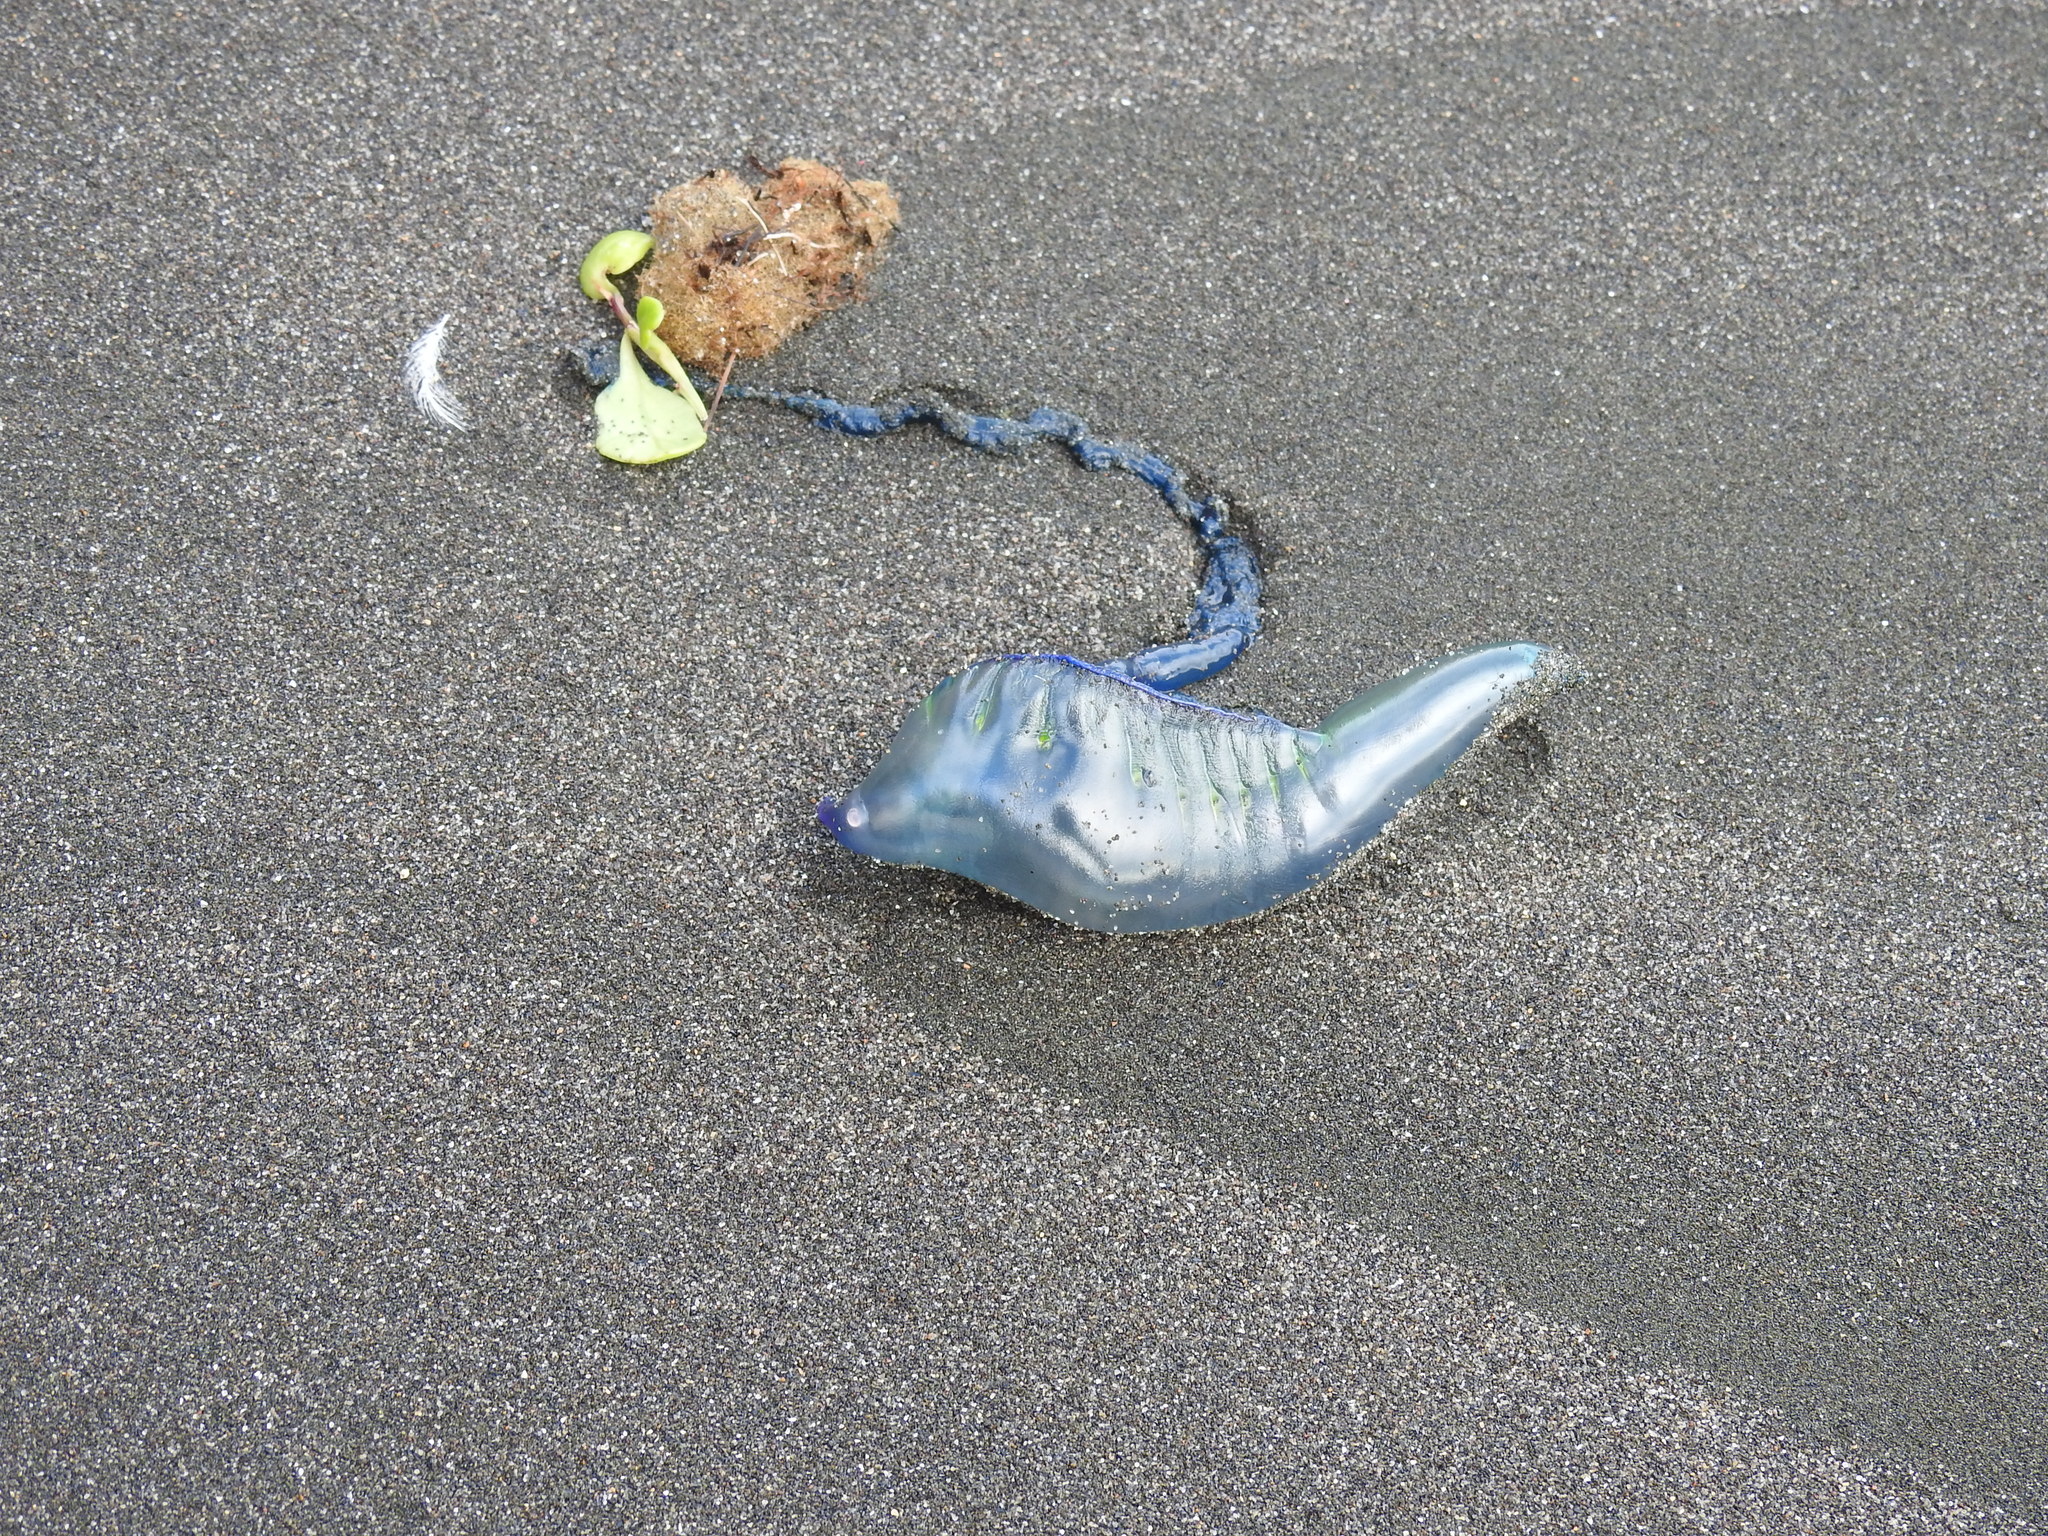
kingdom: Animalia
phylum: Cnidaria
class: Hydrozoa
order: Siphonophorae
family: Physaliidae
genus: Physalia
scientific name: Physalia physalis
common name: Portuguese man-of-war
